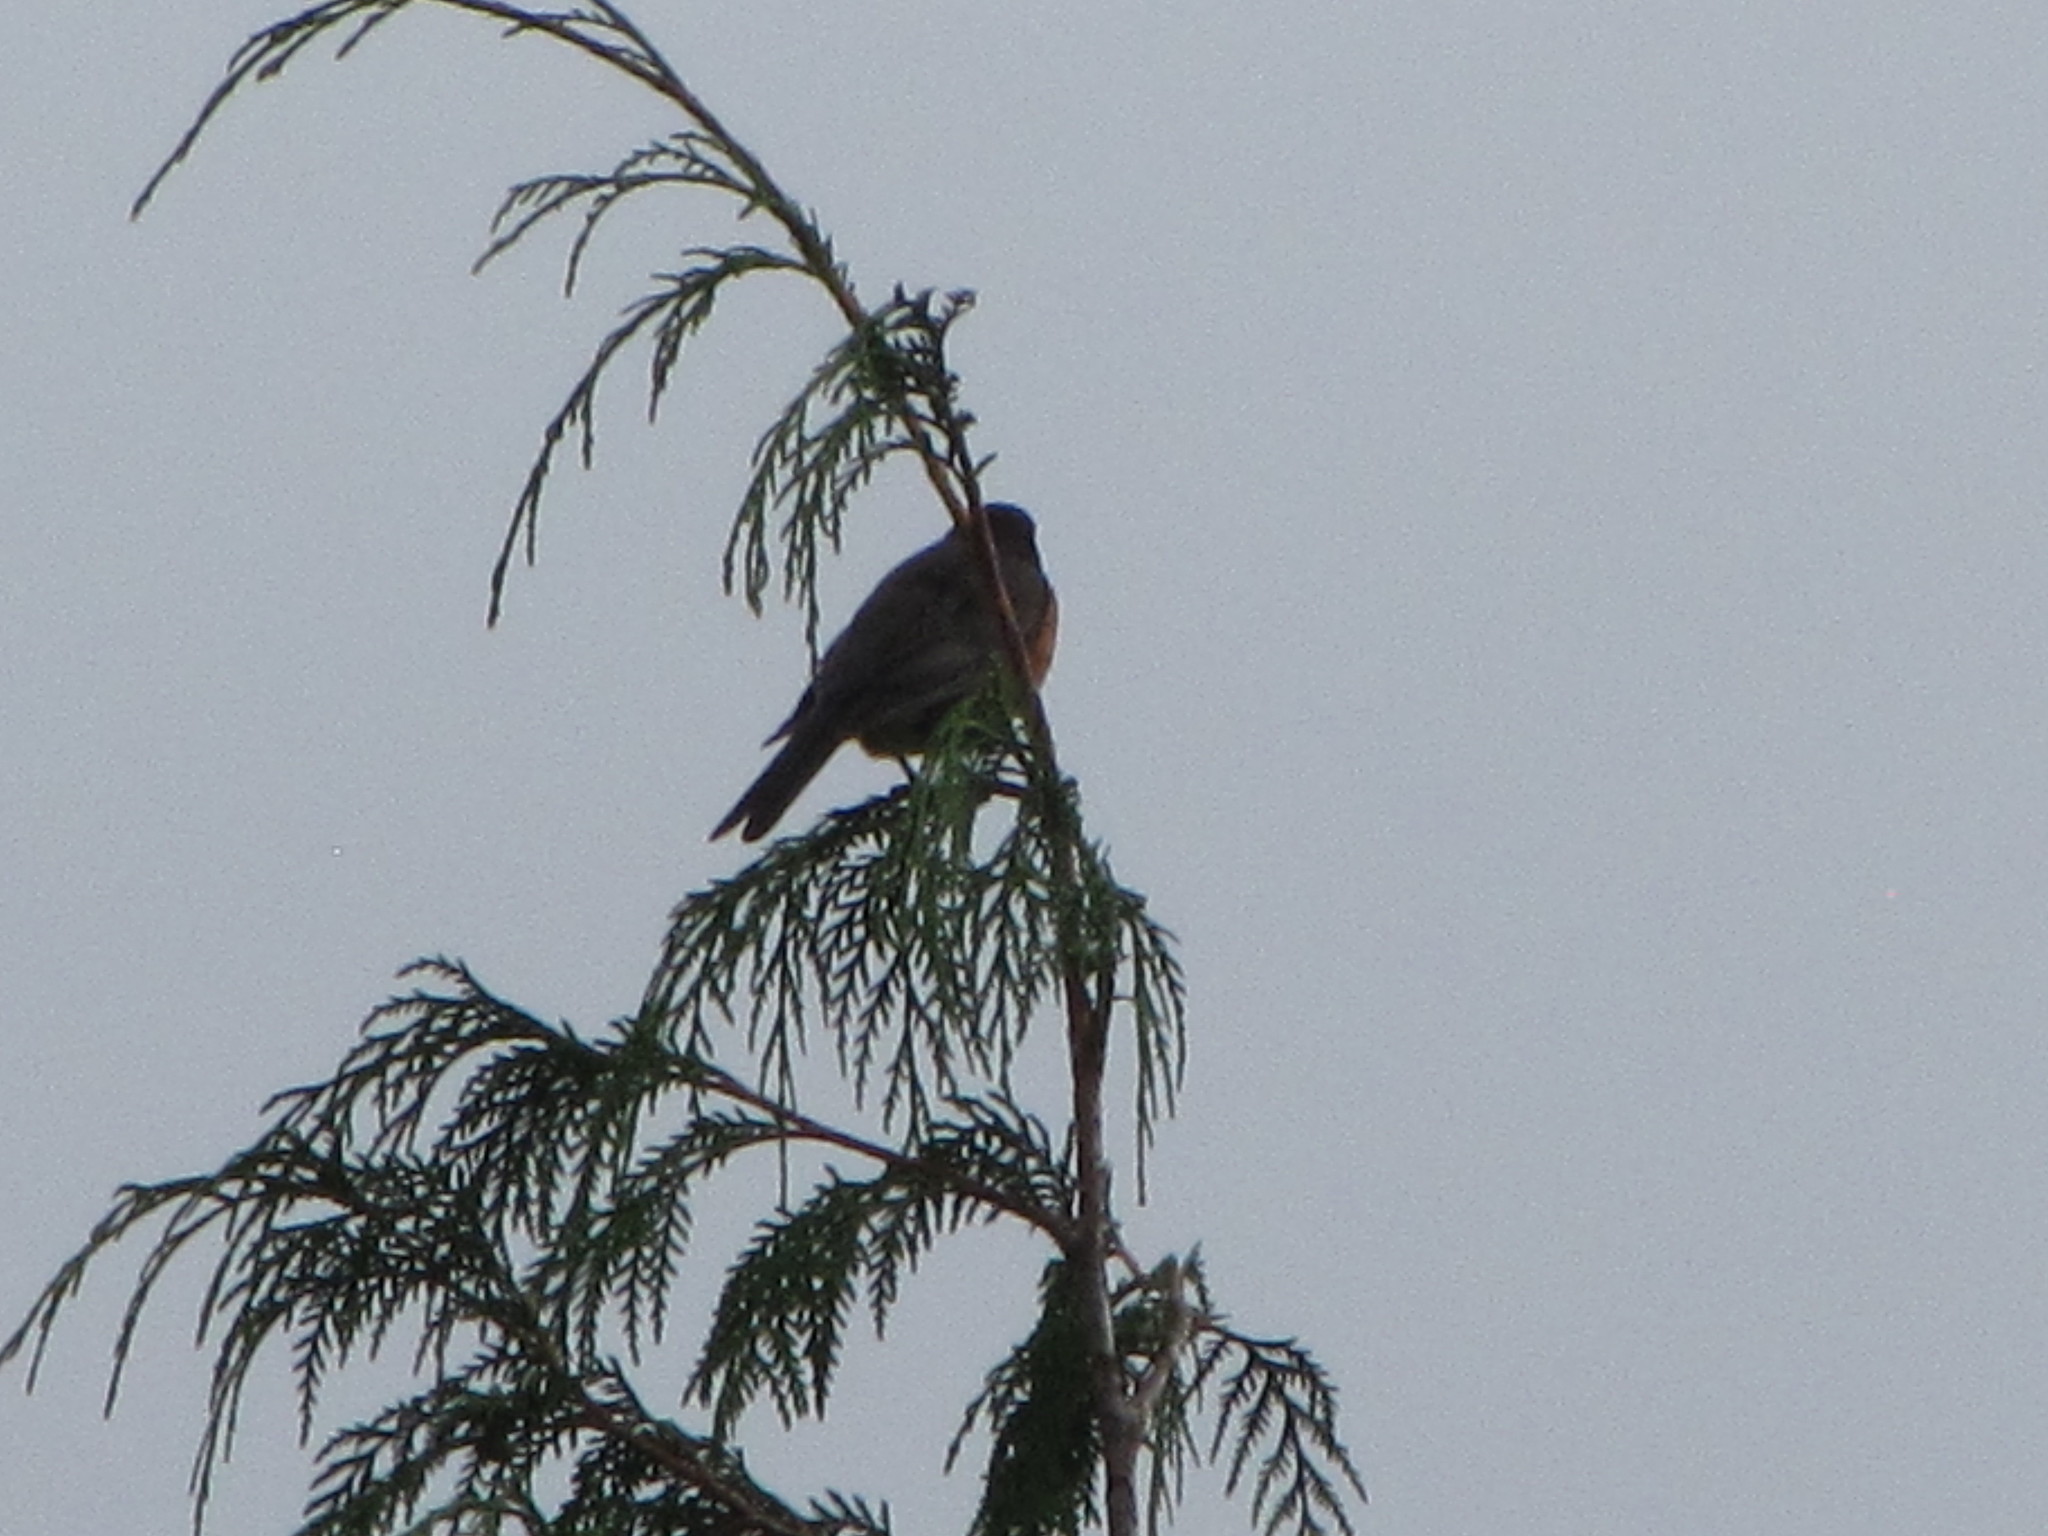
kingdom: Animalia
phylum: Chordata
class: Aves
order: Passeriformes
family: Turdidae
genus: Turdus
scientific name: Turdus migratorius
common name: American robin
